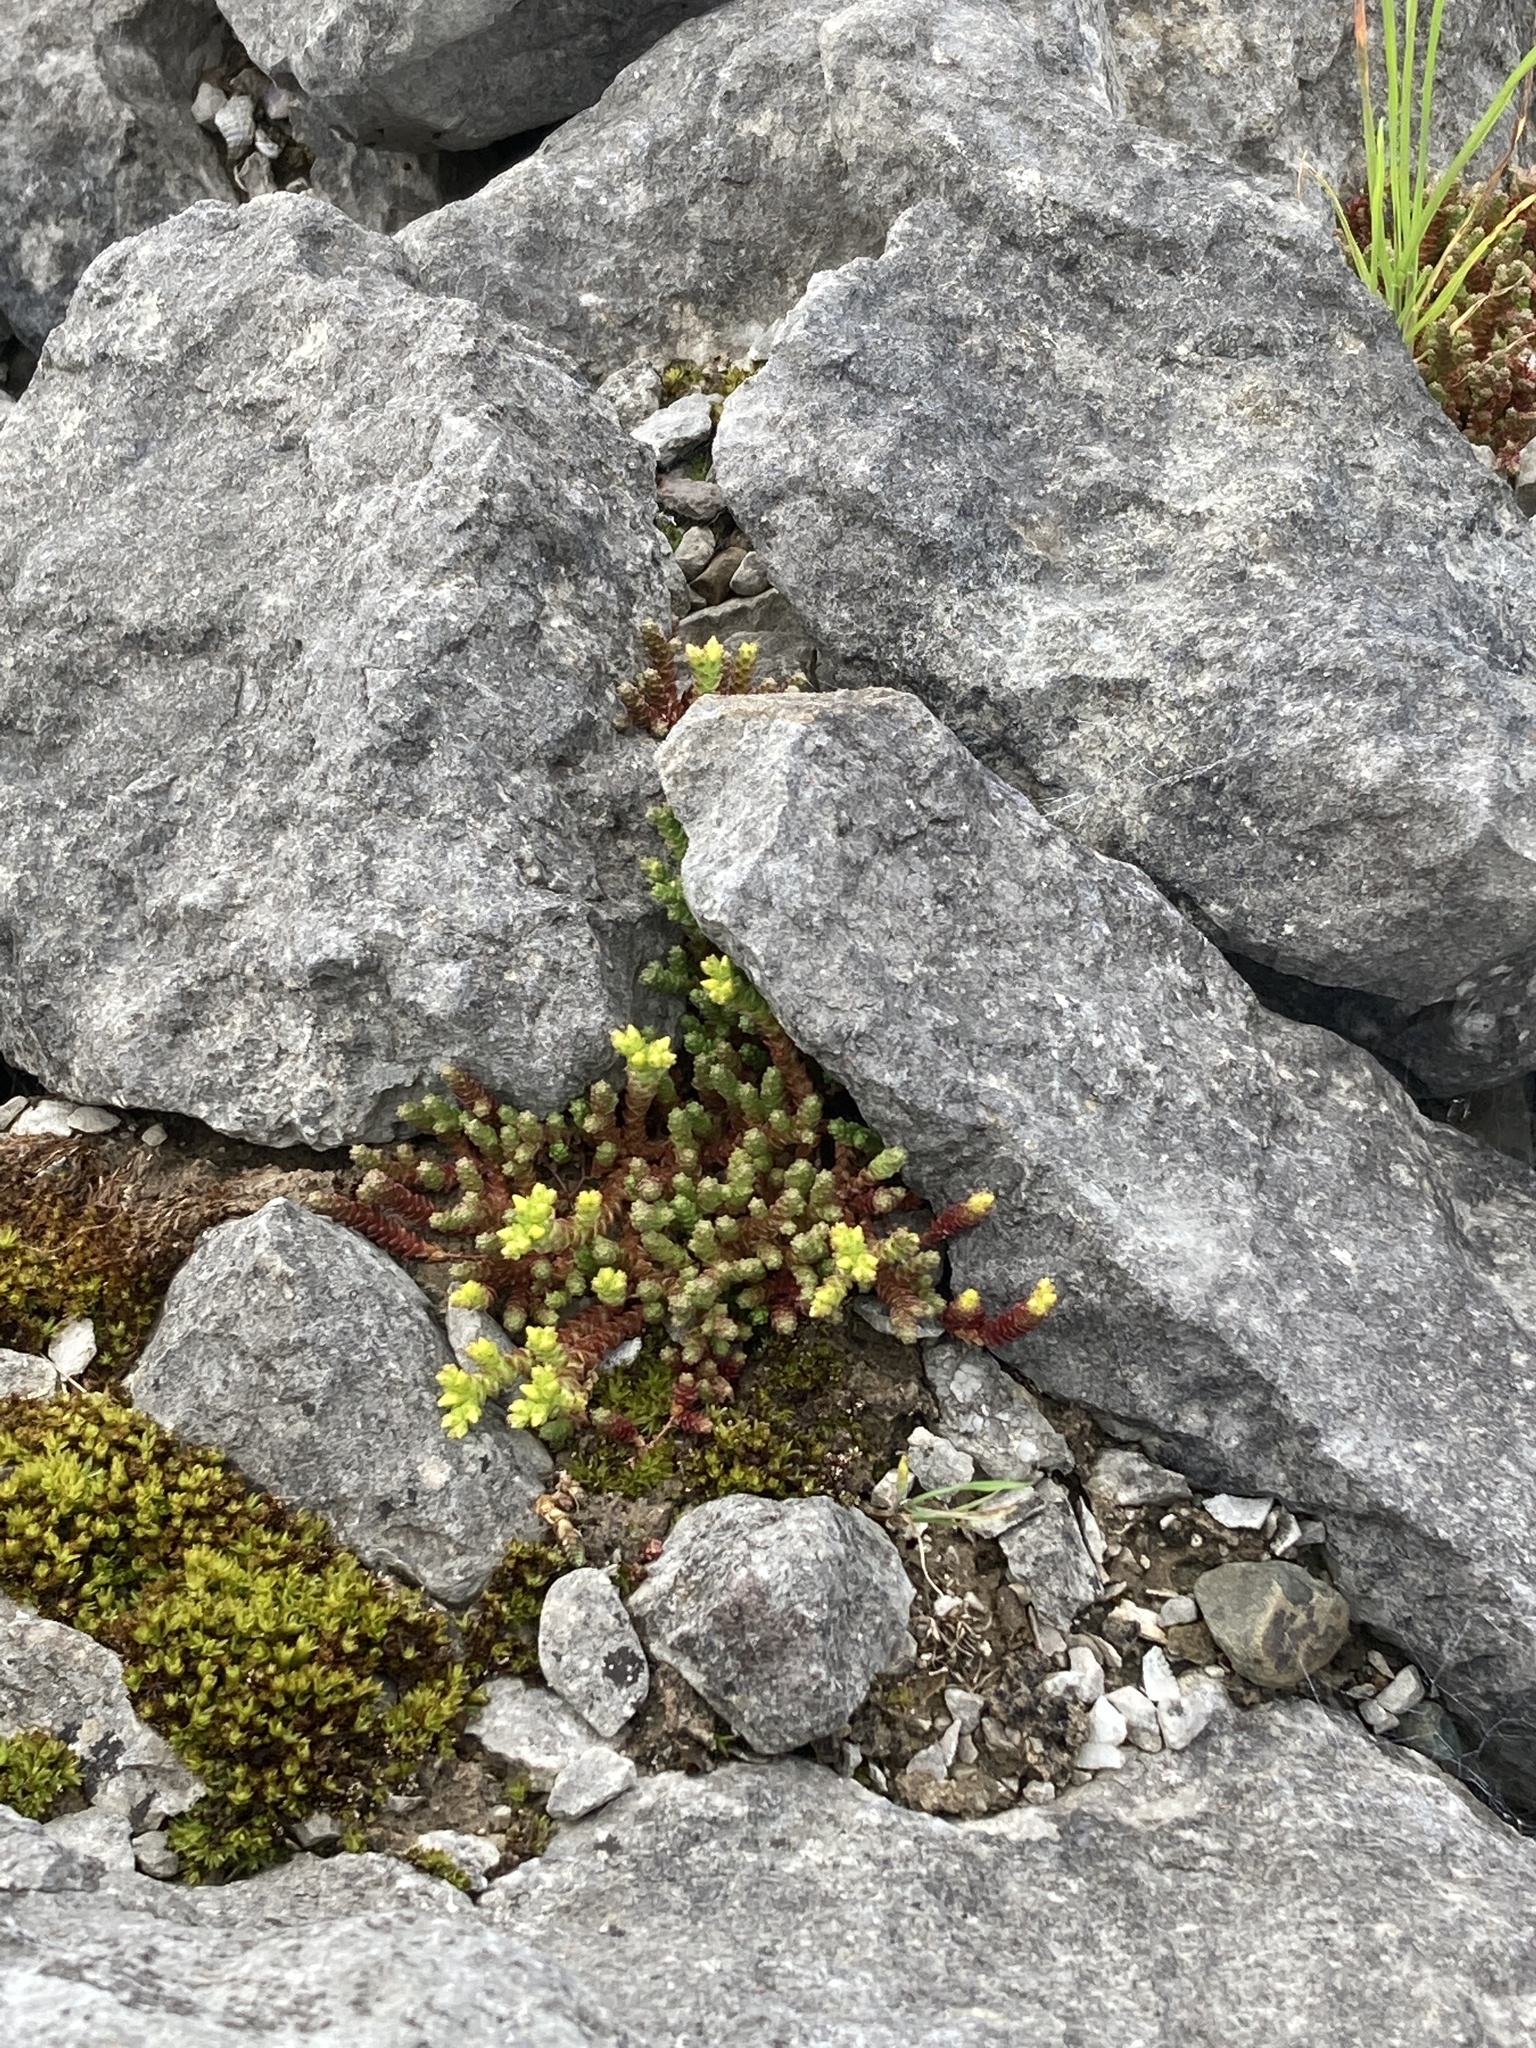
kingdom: Plantae
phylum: Tracheophyta
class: Magnoliopsida
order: Saxifragales
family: Crassulaceae
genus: Sedum
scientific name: Sedum acre
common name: Biting stonecrop
